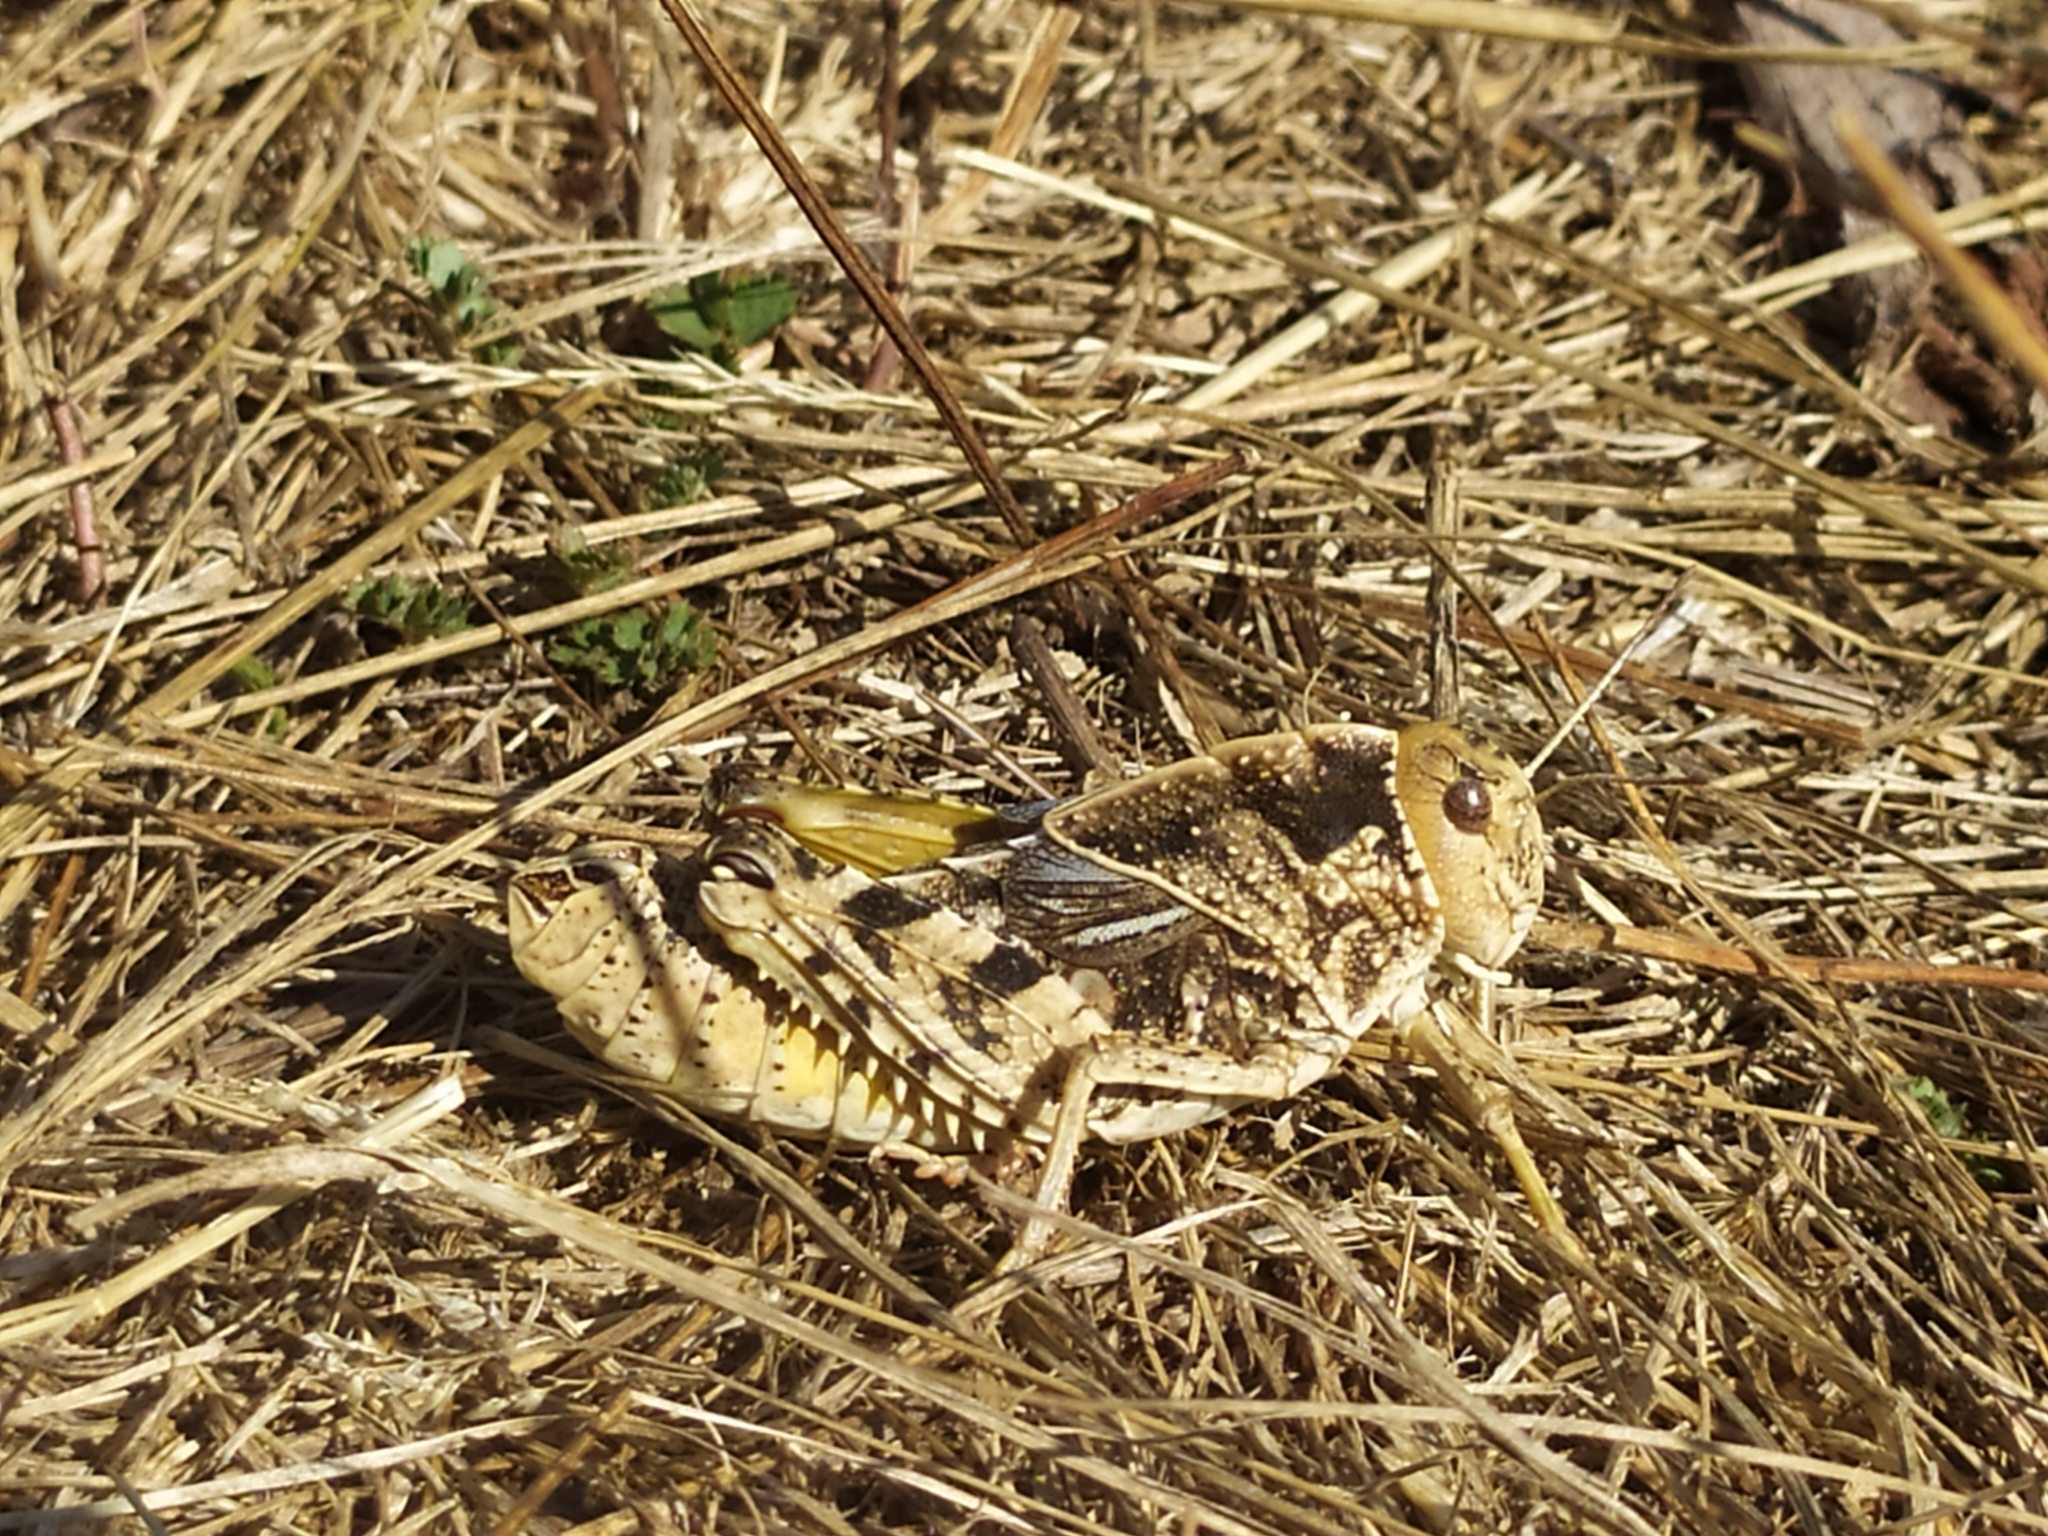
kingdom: Animalia
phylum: Arthropoda
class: Insecta
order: Orthoptera
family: Pamphagidae
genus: Prionotropis
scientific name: Prionotropis hystrix
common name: Eastern stone grasshopper
